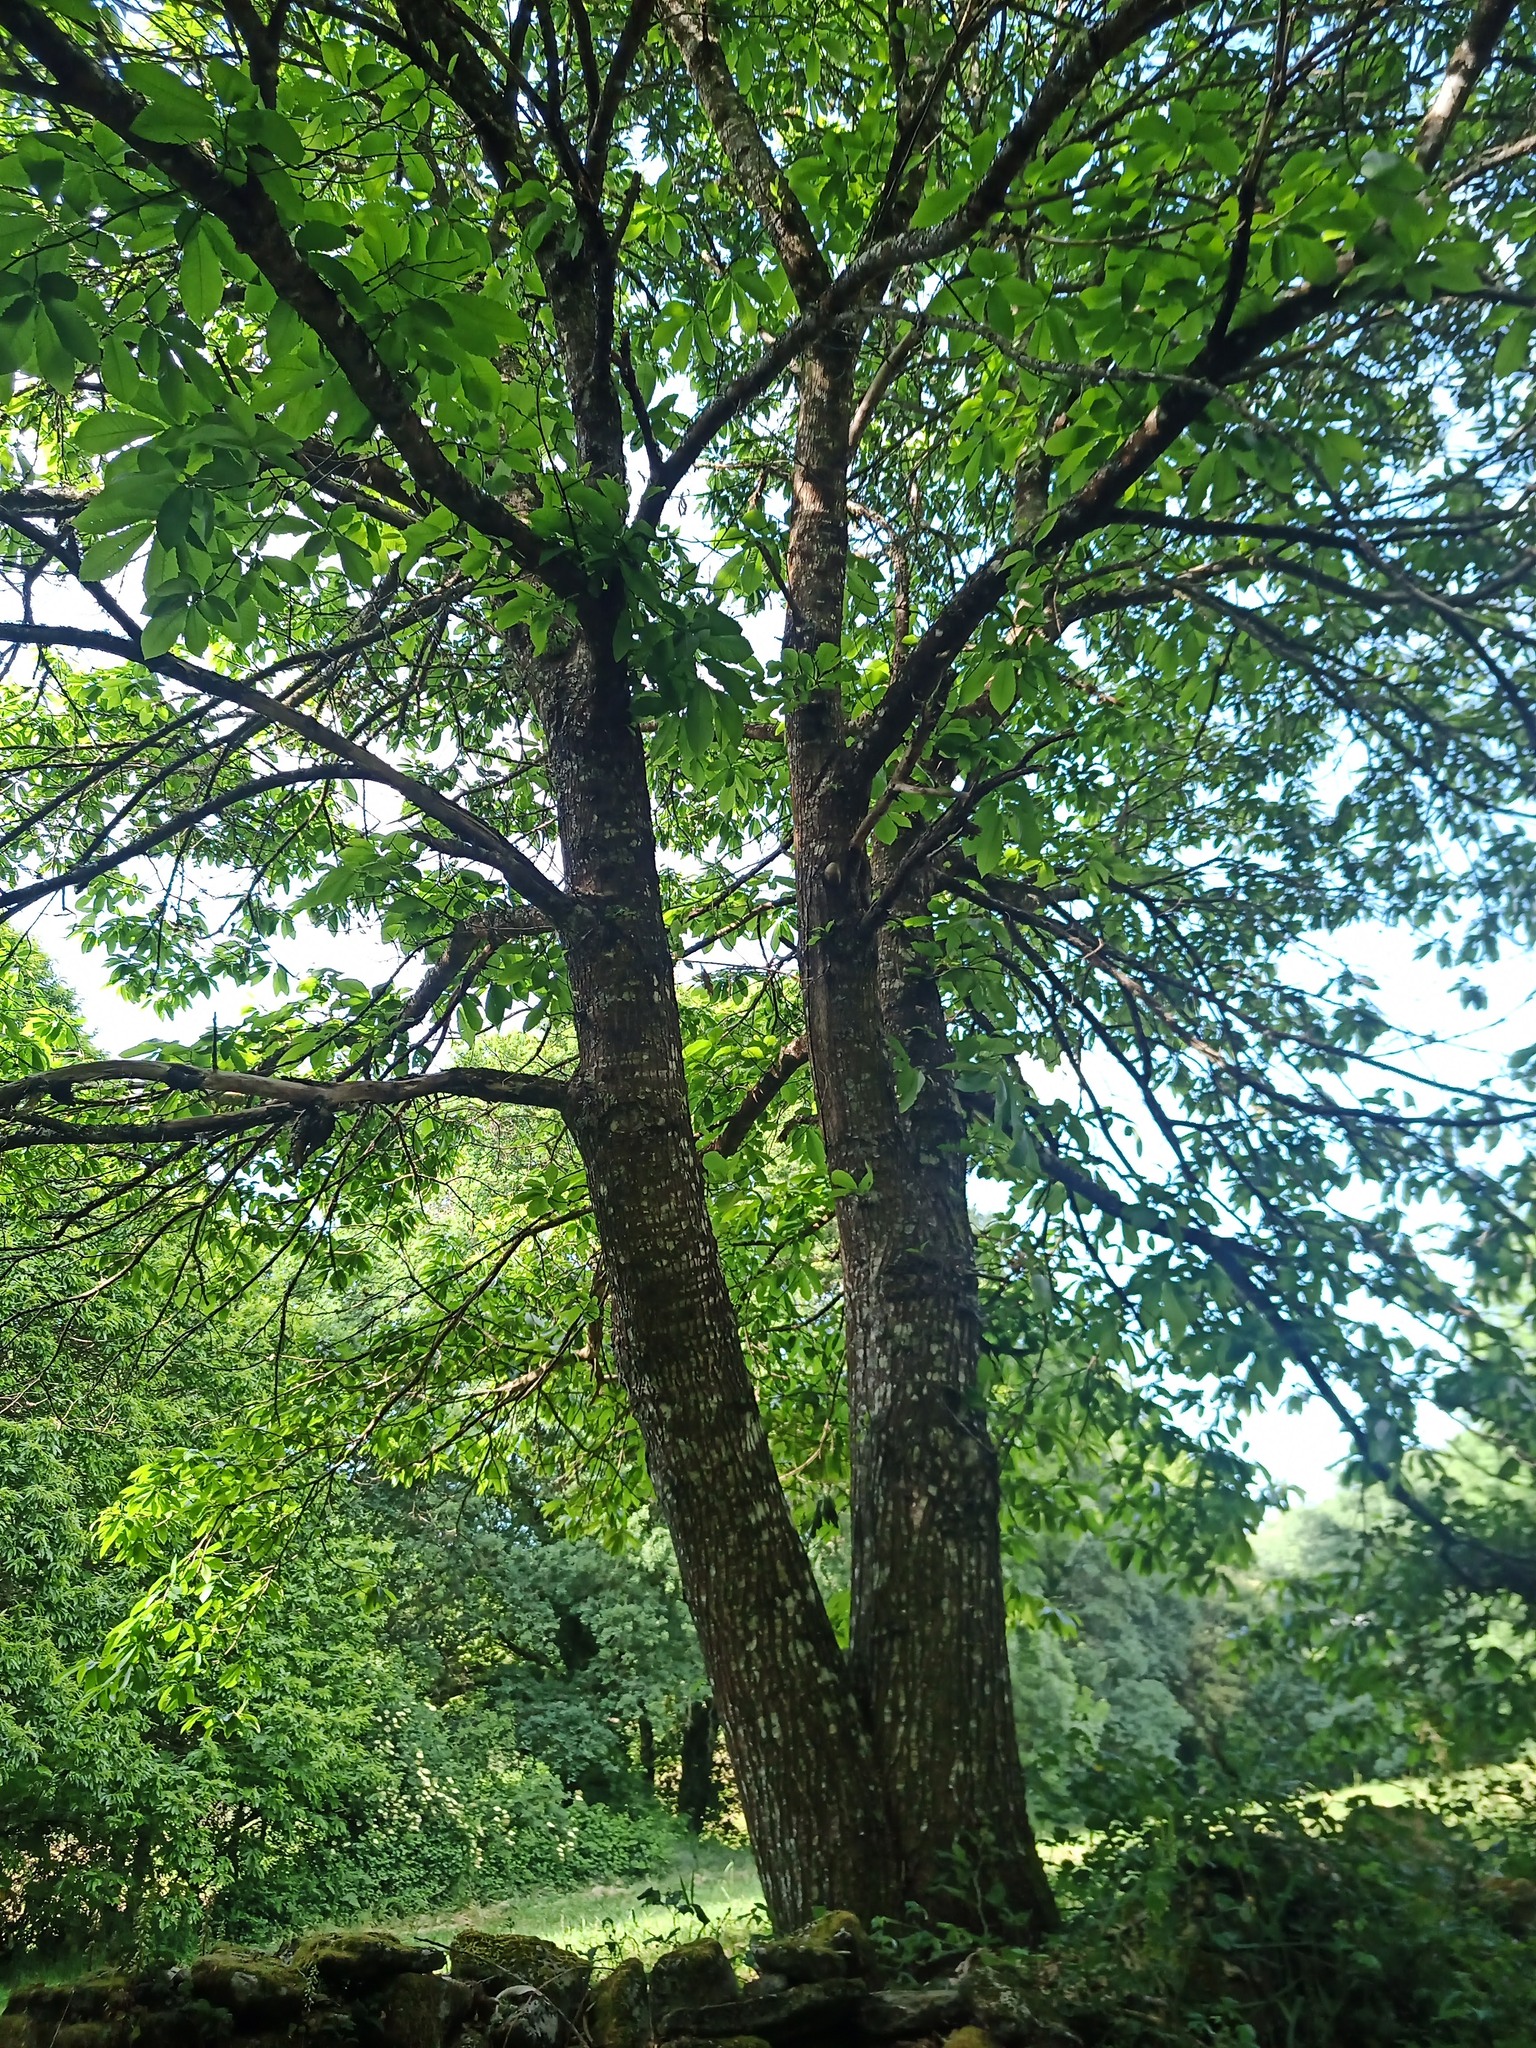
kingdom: Plantae
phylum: Tracheophyta
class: Magnoliopsida
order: Fagales
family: Fagaceae
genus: Castanea
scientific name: Castanea sativa
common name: Sweet chestnut
